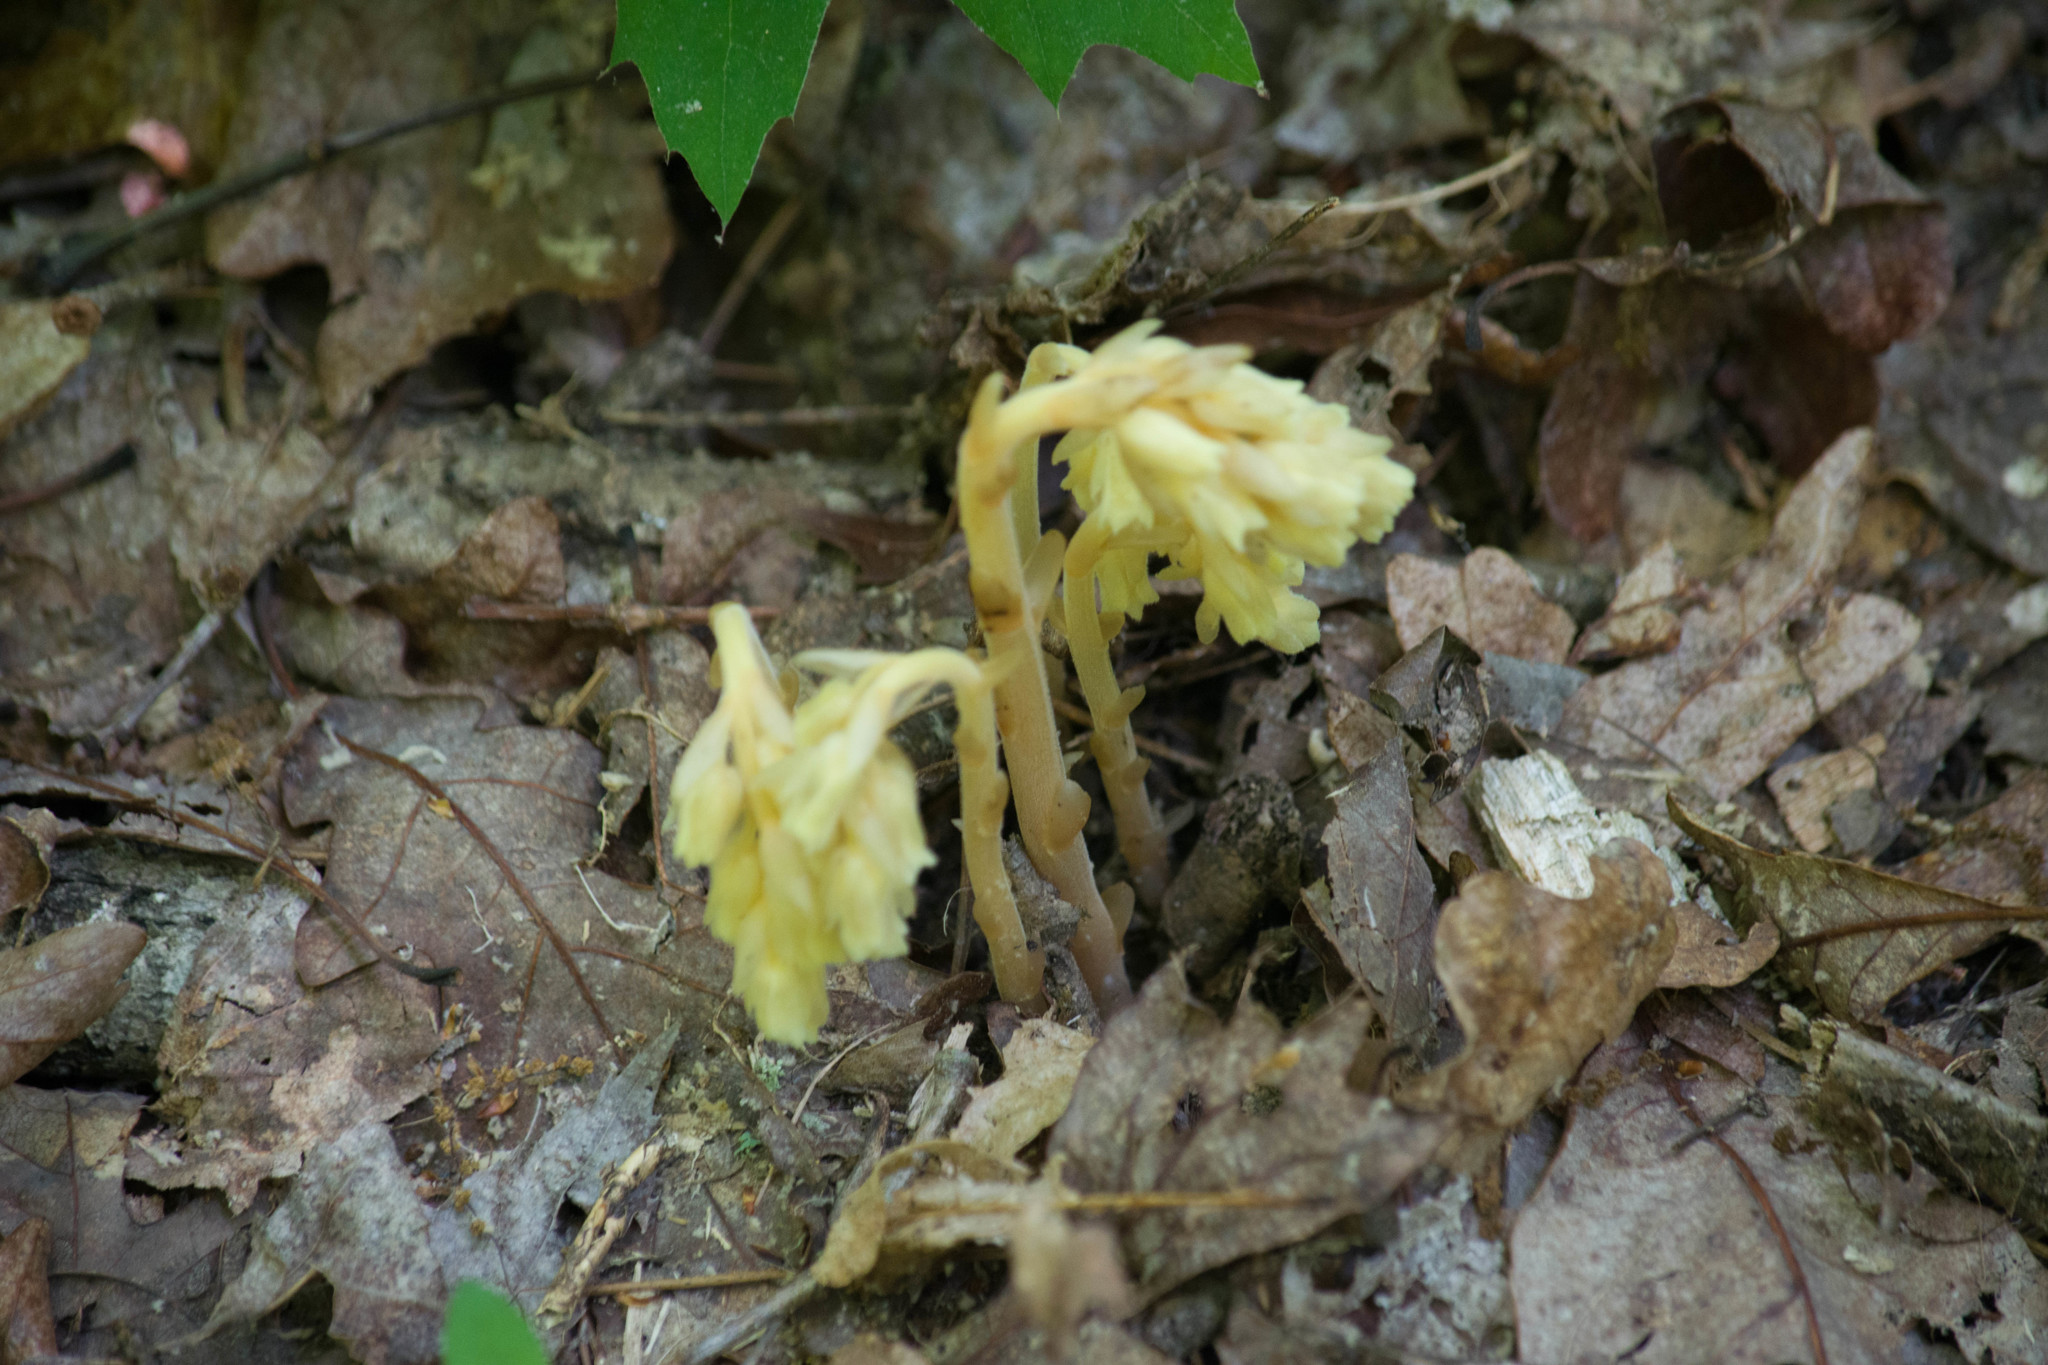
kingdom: Plantae
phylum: Tracheophyta
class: Magnoliopsida
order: Ericales
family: Ericaceae
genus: Hypopitys
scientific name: Hypopitys monotropa
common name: Yellow bird's-nest
